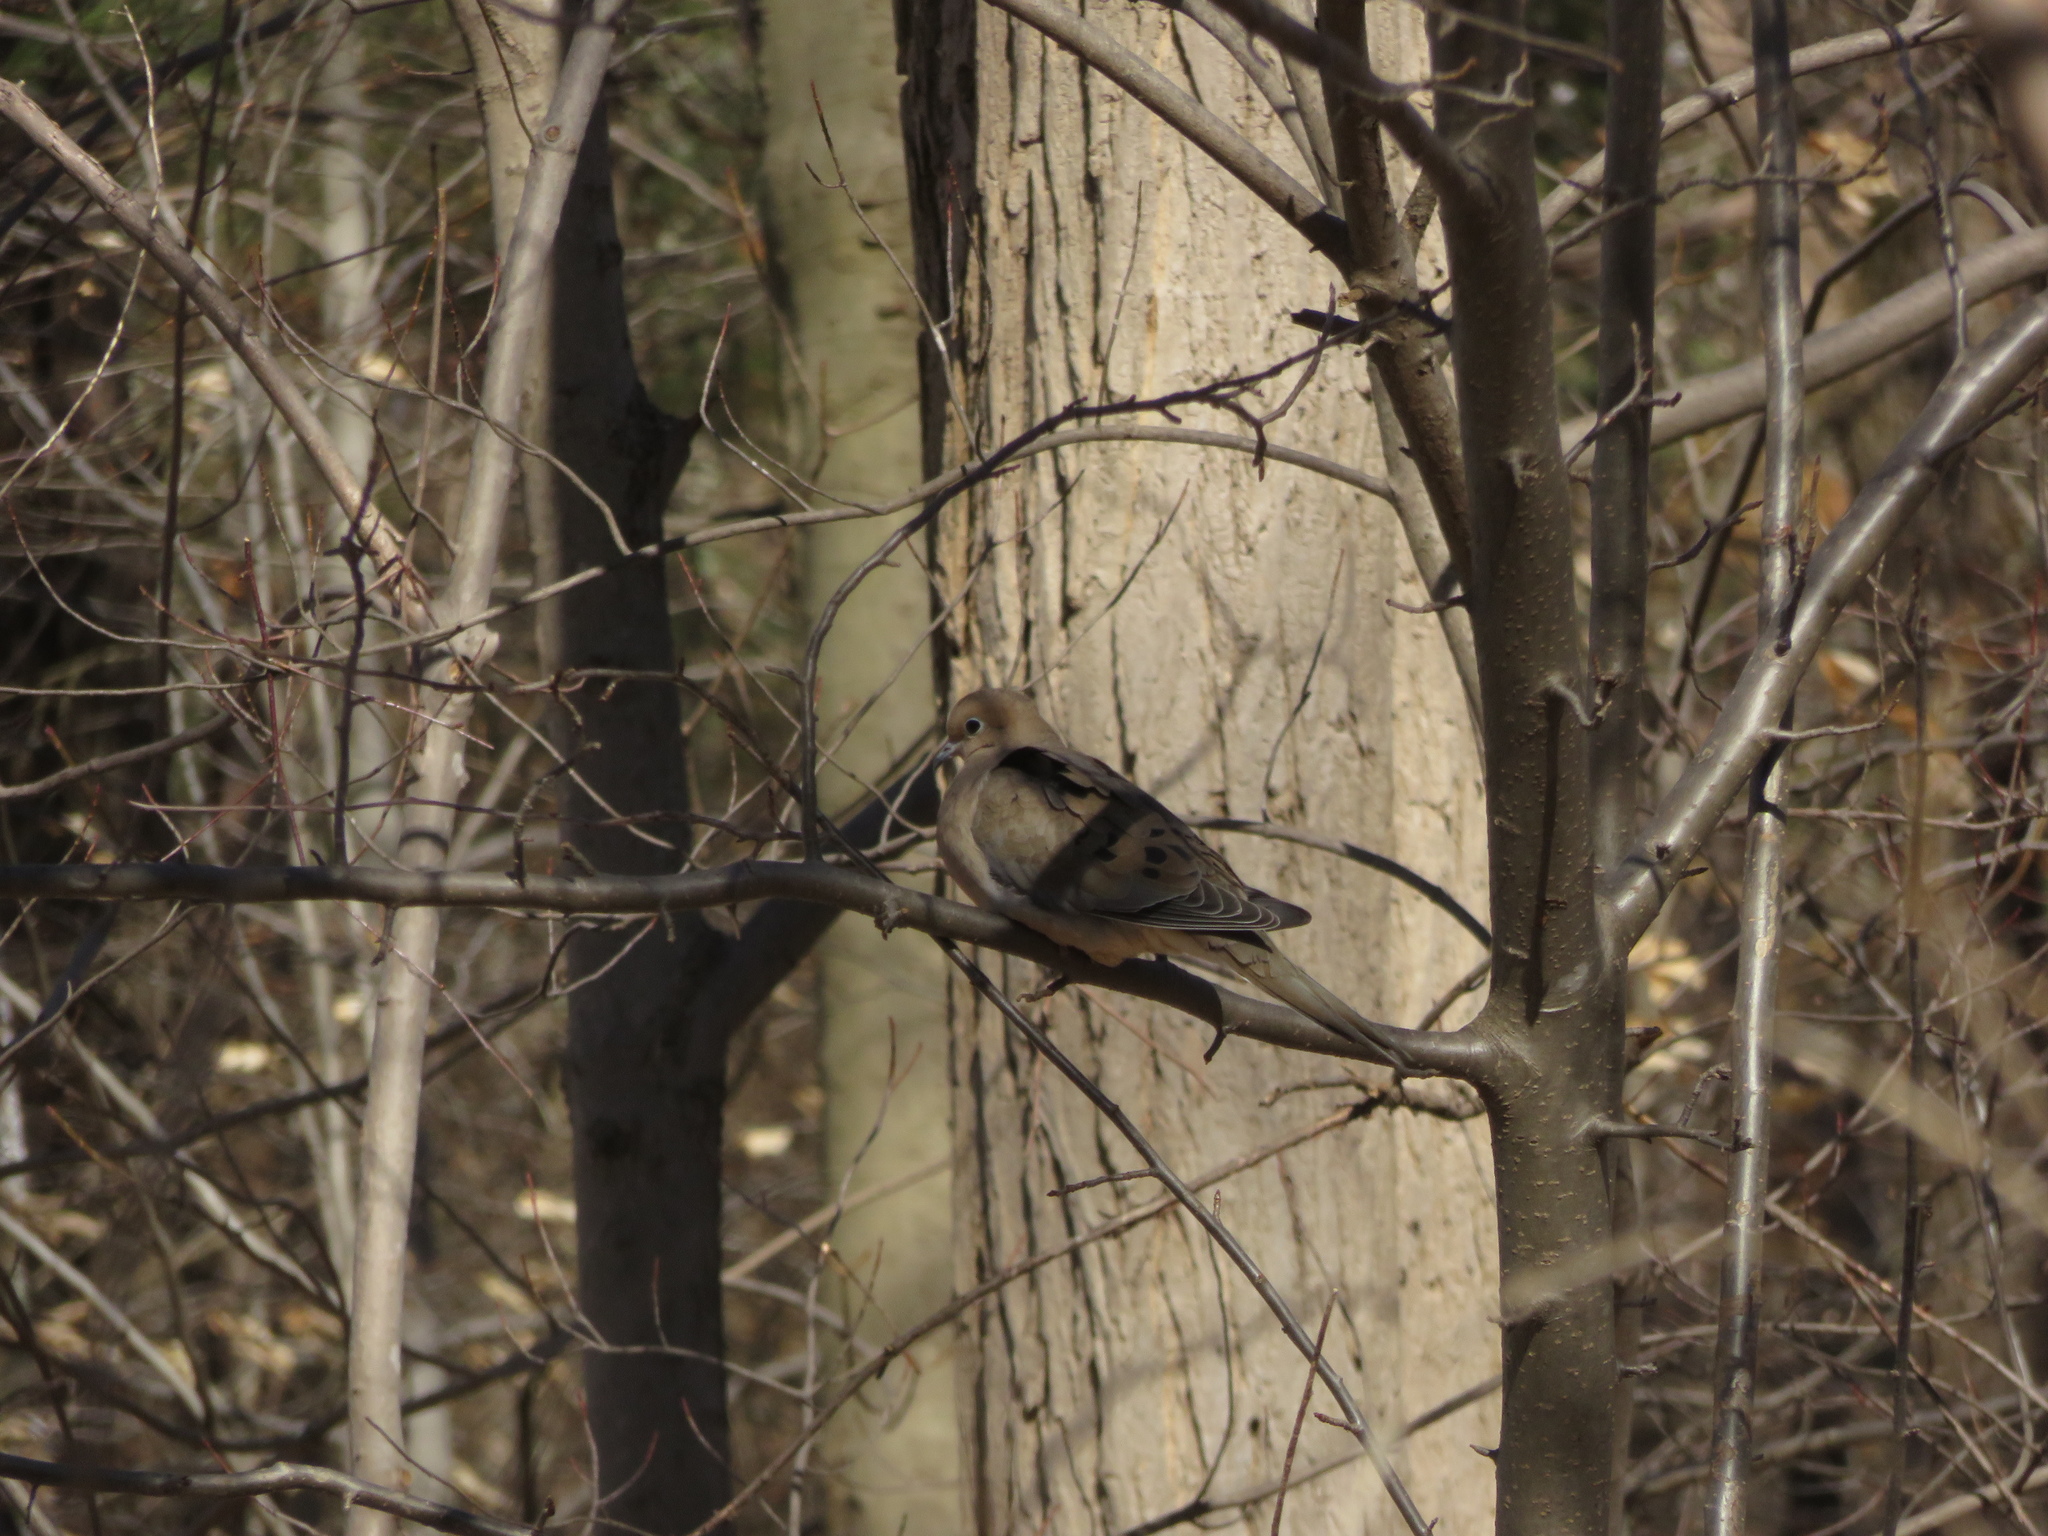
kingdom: Animalia
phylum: Chordata
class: Aves
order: Columbiformes
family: Columbidae
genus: Zenaida
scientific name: Zenaida macroura
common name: Mourning dove
